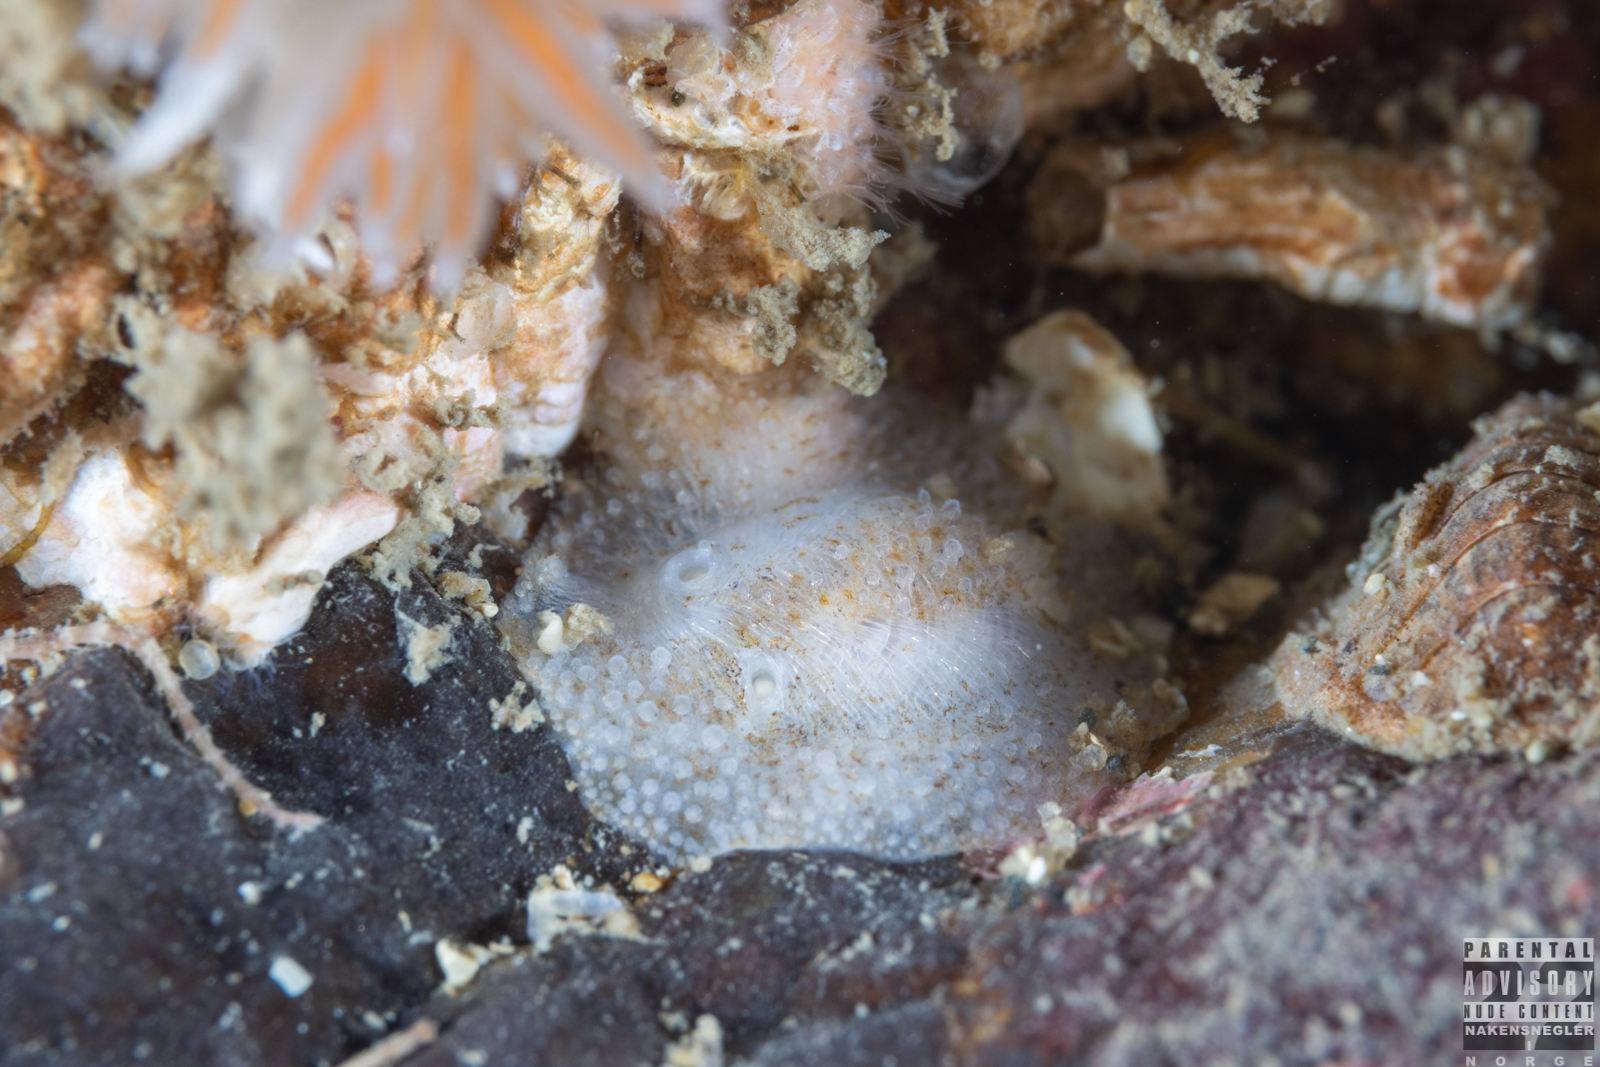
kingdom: Animalia
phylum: Mollusca
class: Gastropoda
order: Nudibranchia
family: Onchidorididae
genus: Atalodoris
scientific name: Atalodoris sparsa
